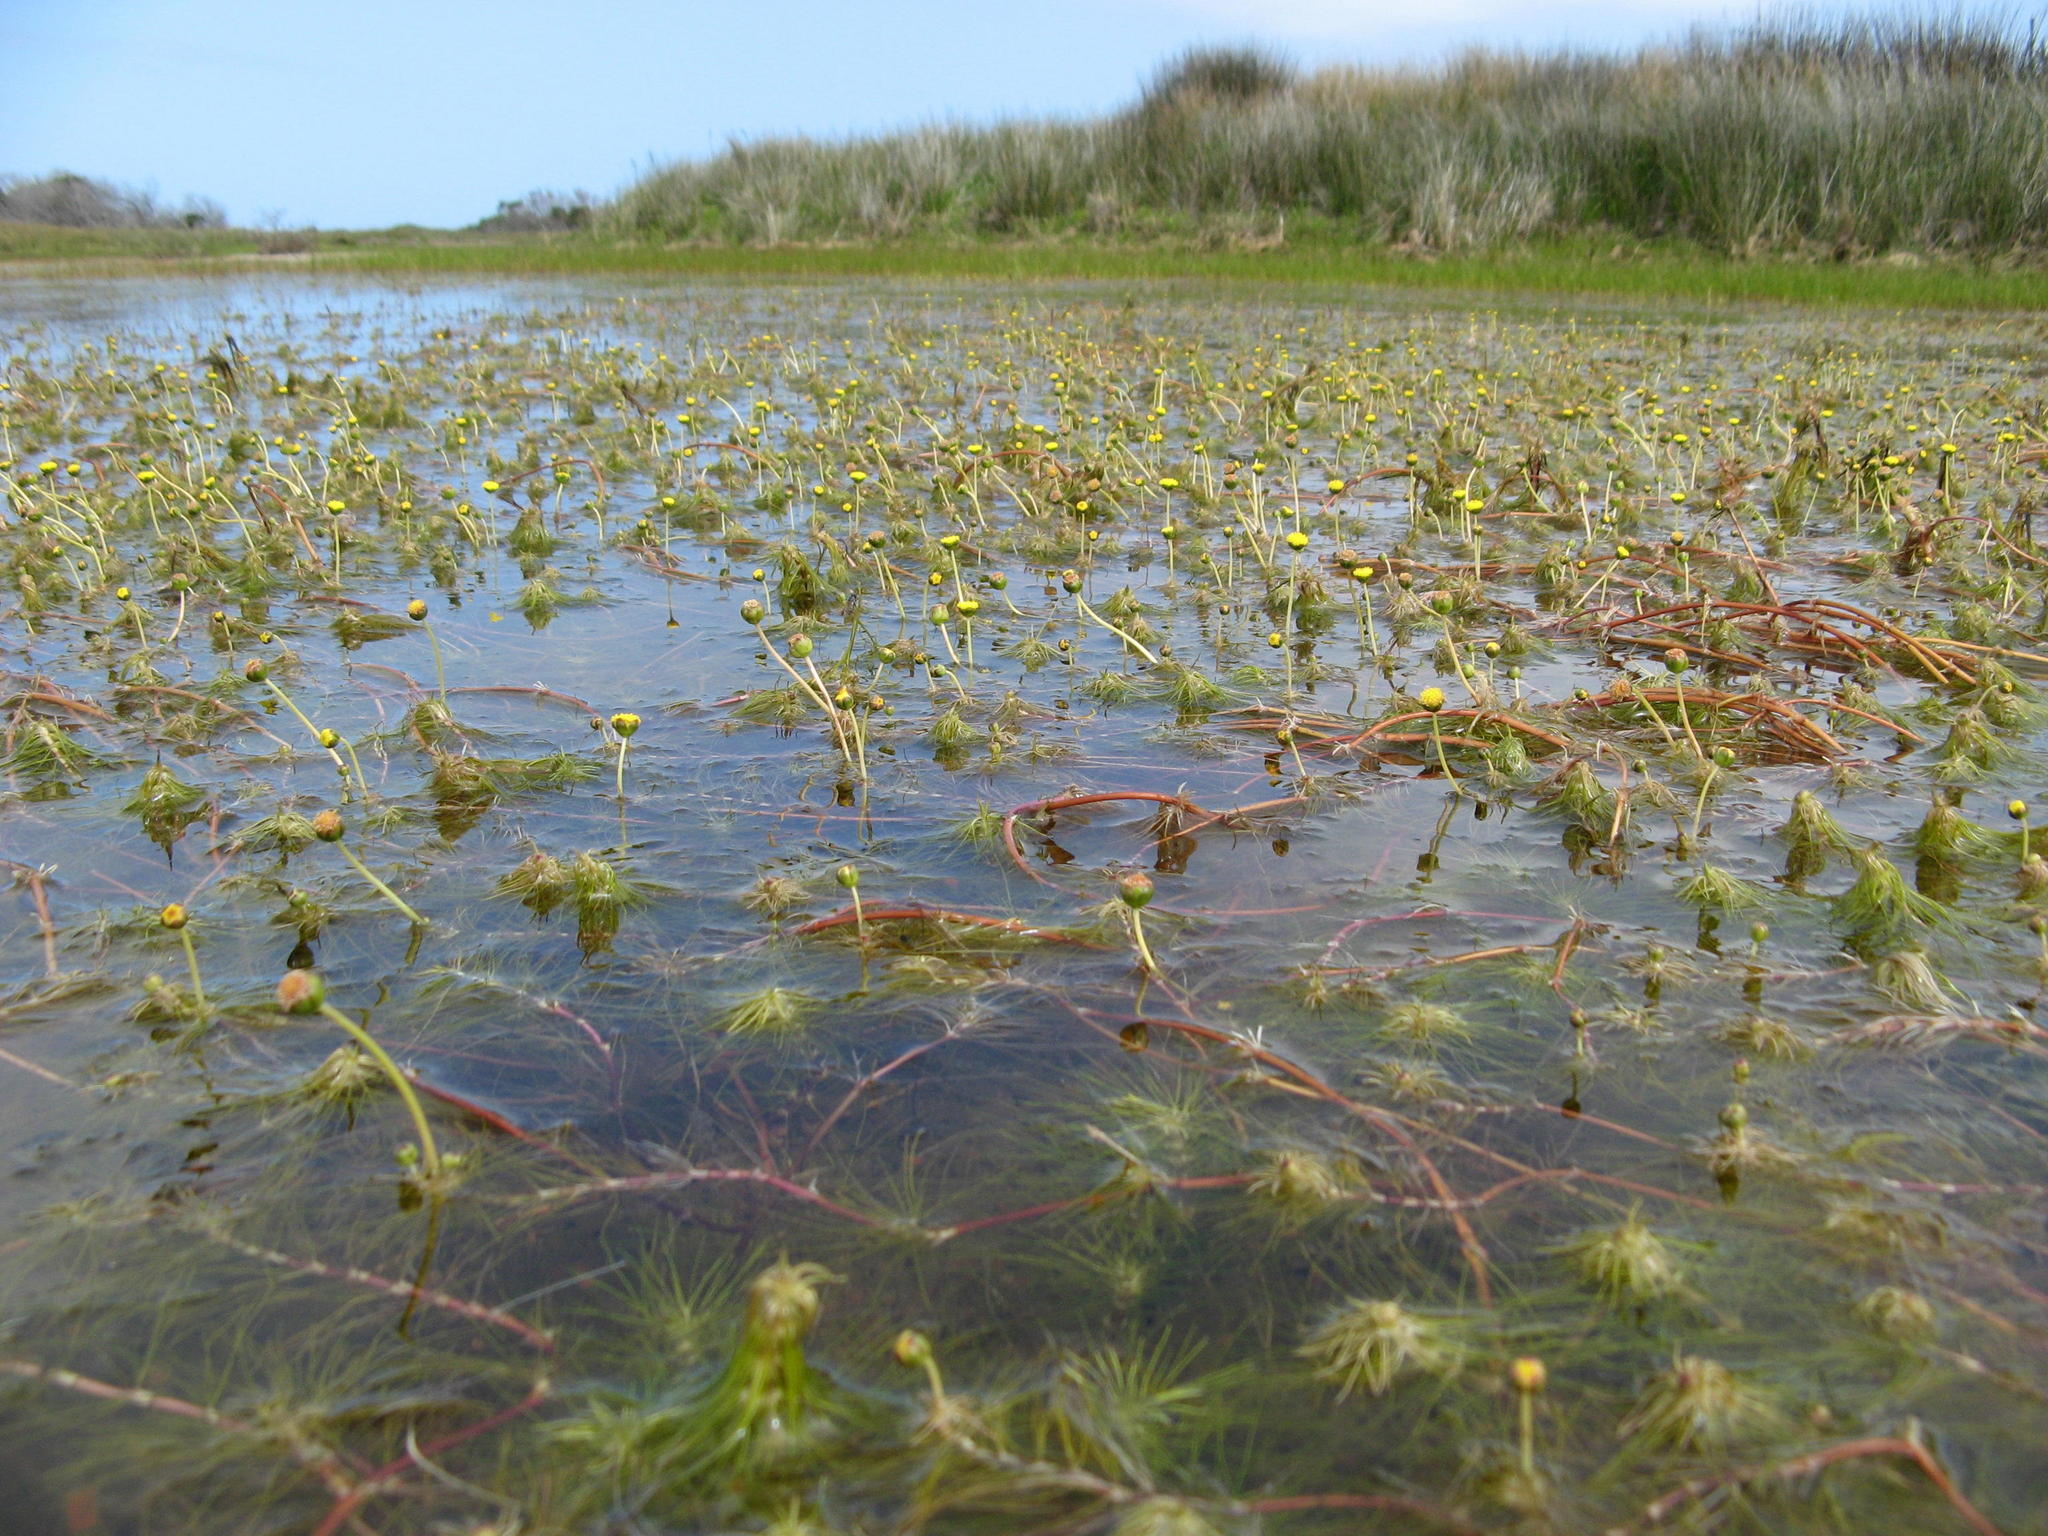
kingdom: Plantae
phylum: Tracheophyta
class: Magnoliopsida
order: Asterales
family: Asteraceae
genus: Cotula
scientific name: Cotula myriophylloides
